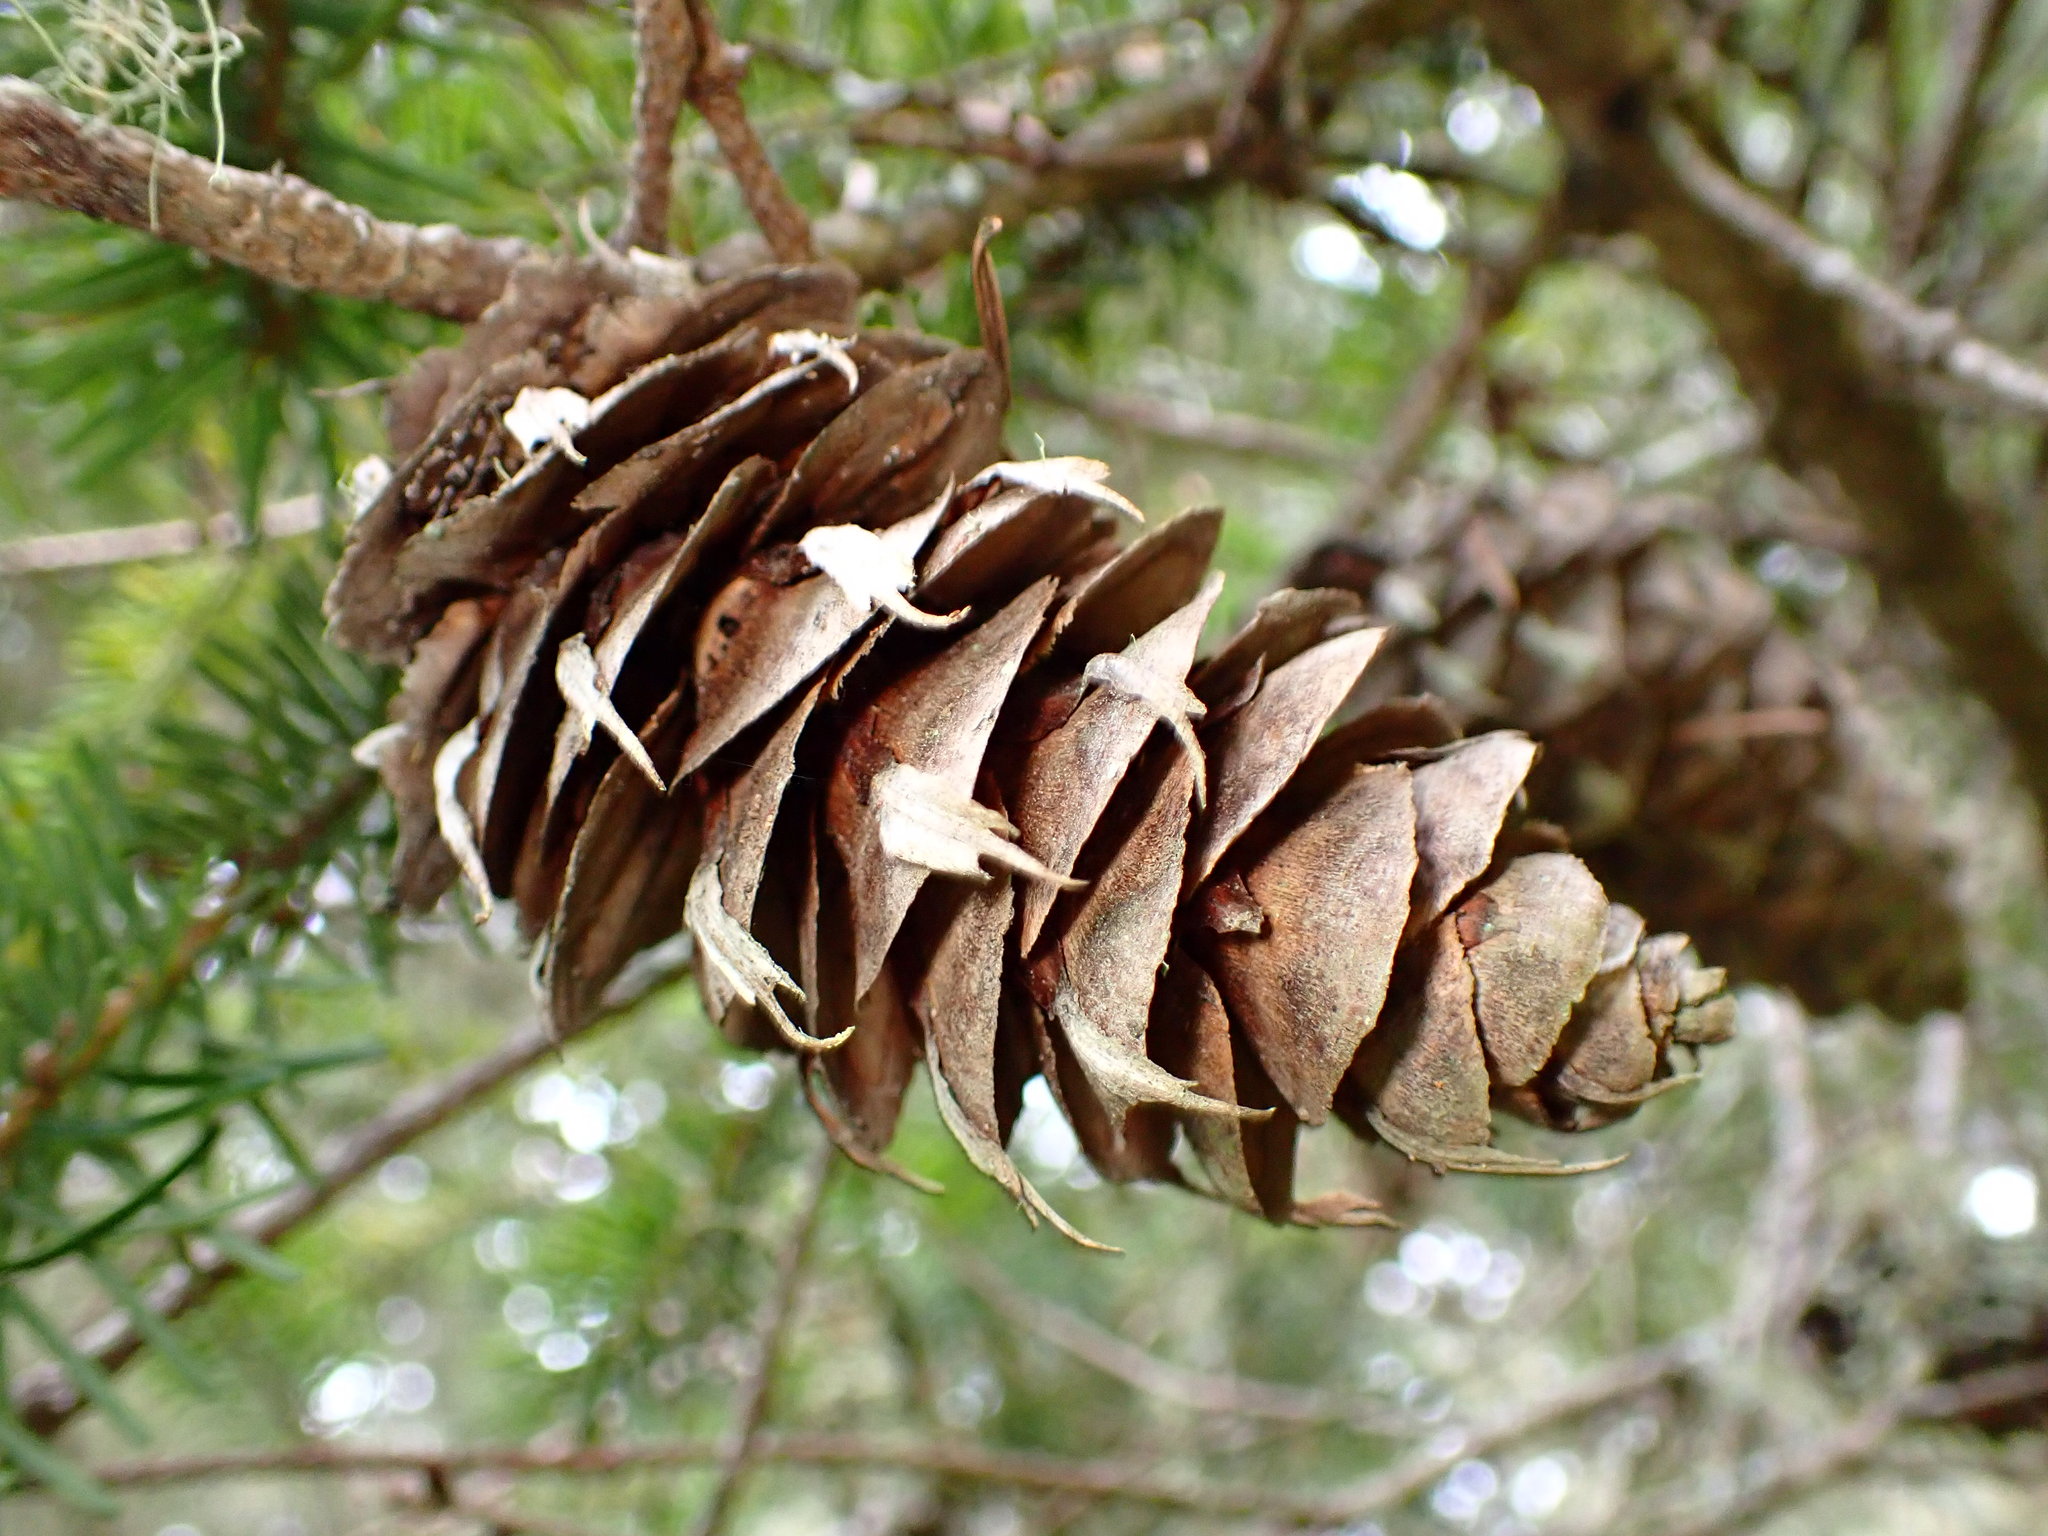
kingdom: Plantae
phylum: Tracheophyta
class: Pinopsida
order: Pinales
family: Pinaceae
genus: Pseudotsuga
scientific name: Pseudotsuga menziesii
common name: Douglas fir
